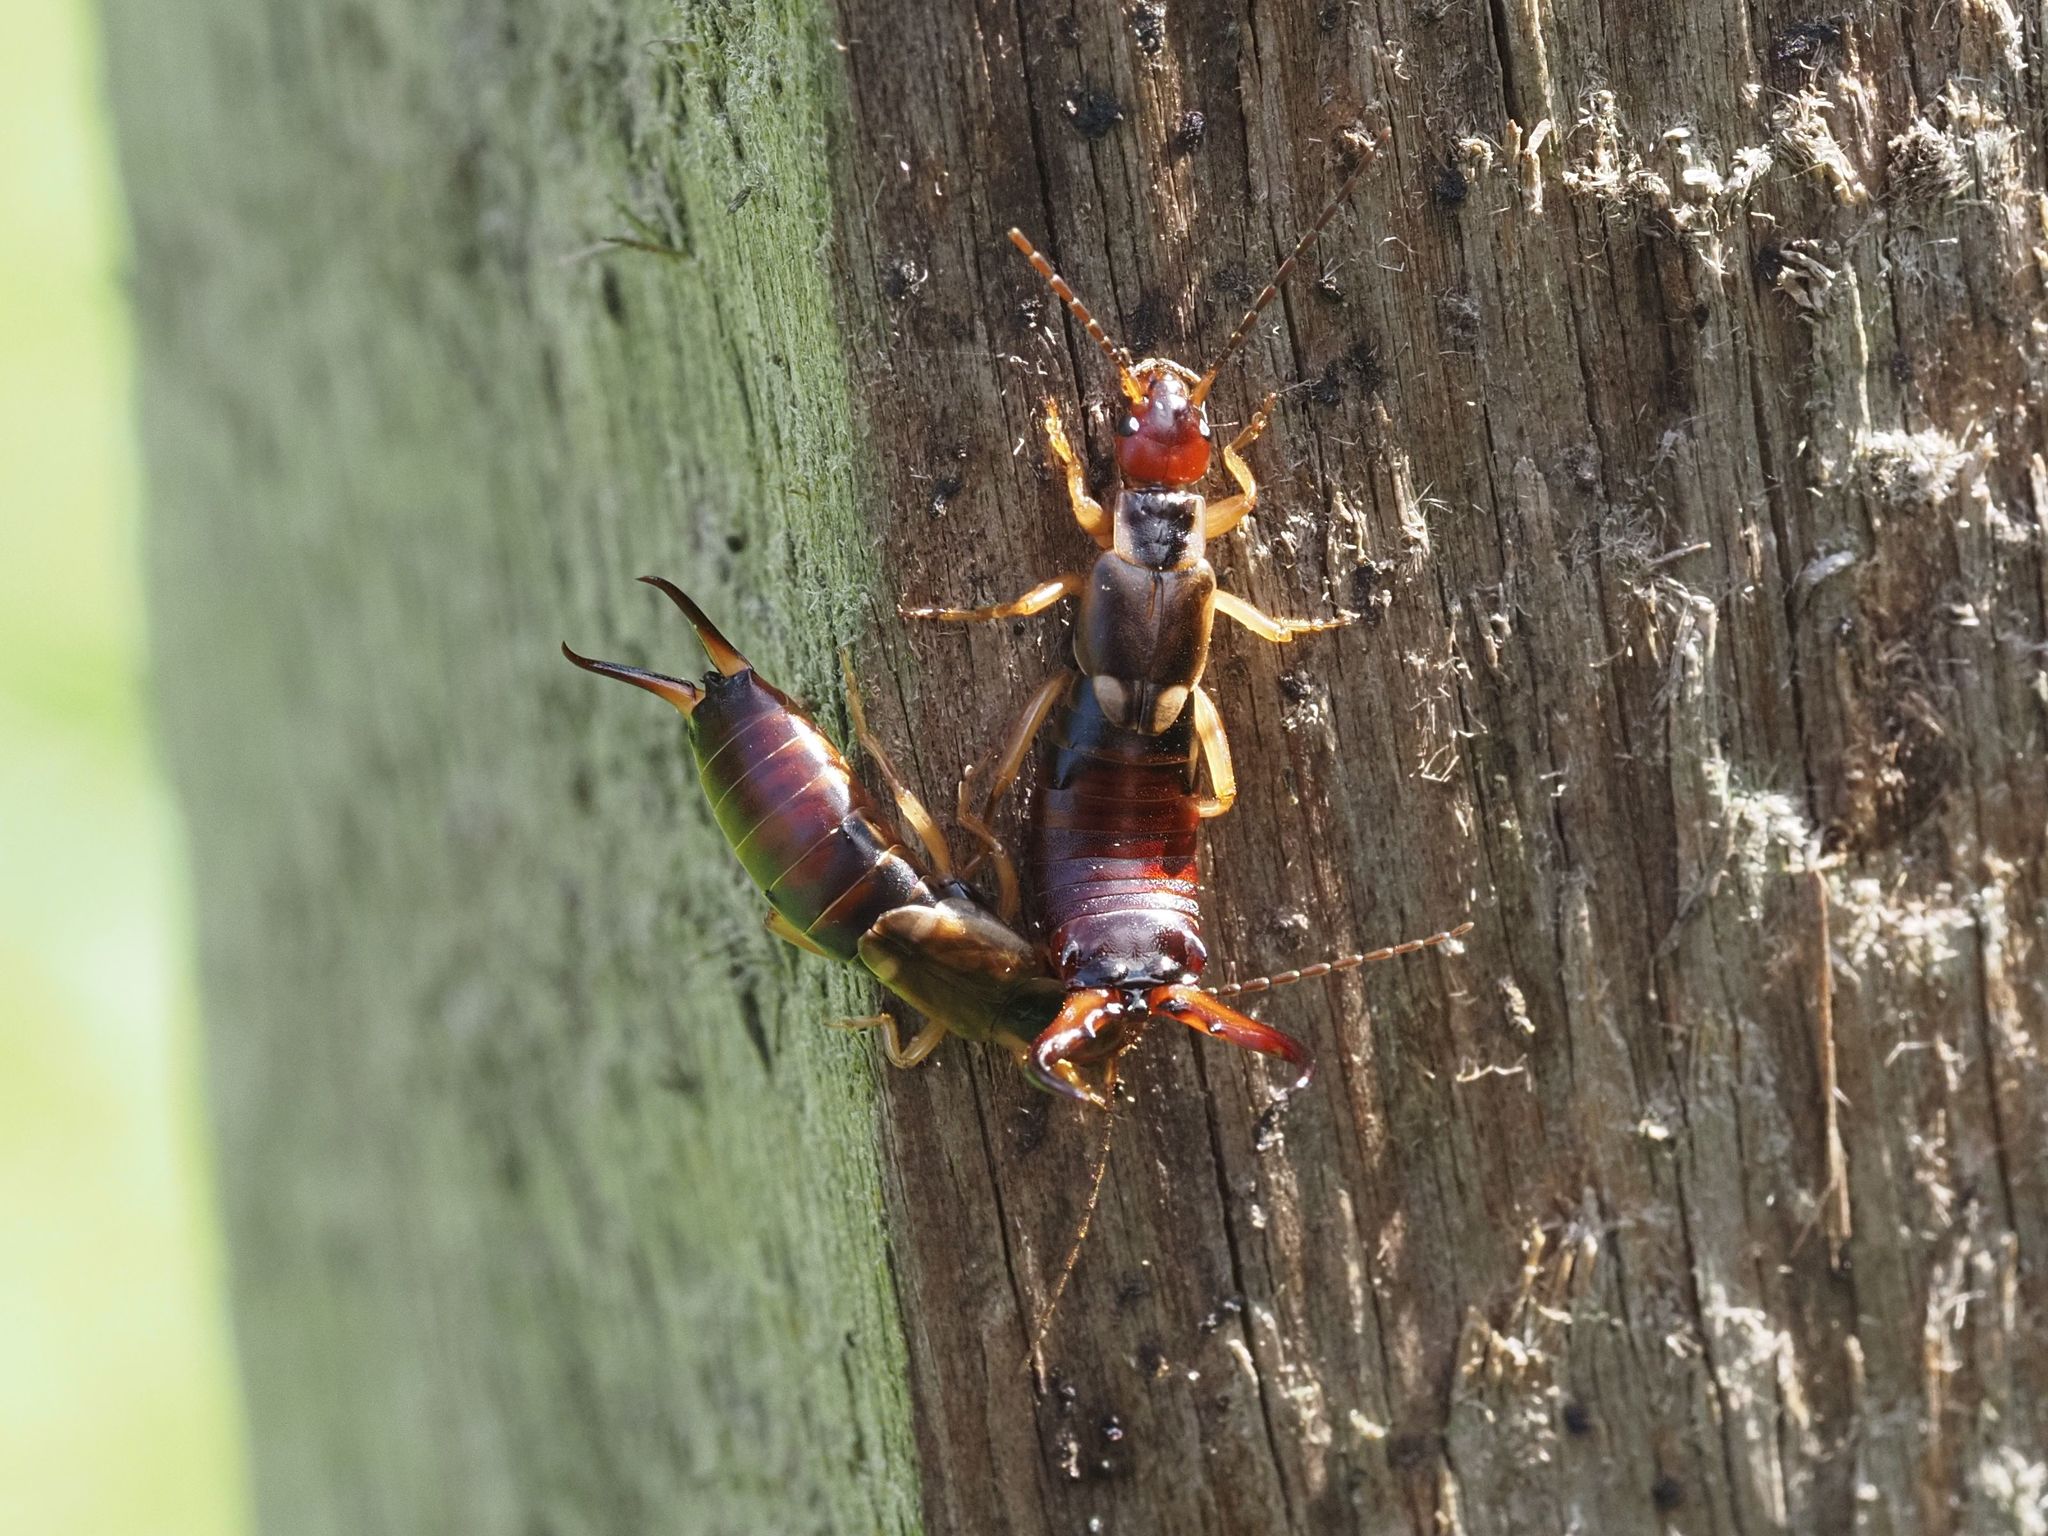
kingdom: Animalia
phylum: Arthropoda
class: Insecta
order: Dermaptera
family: Forficulidae
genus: Forficula
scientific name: Forficula
